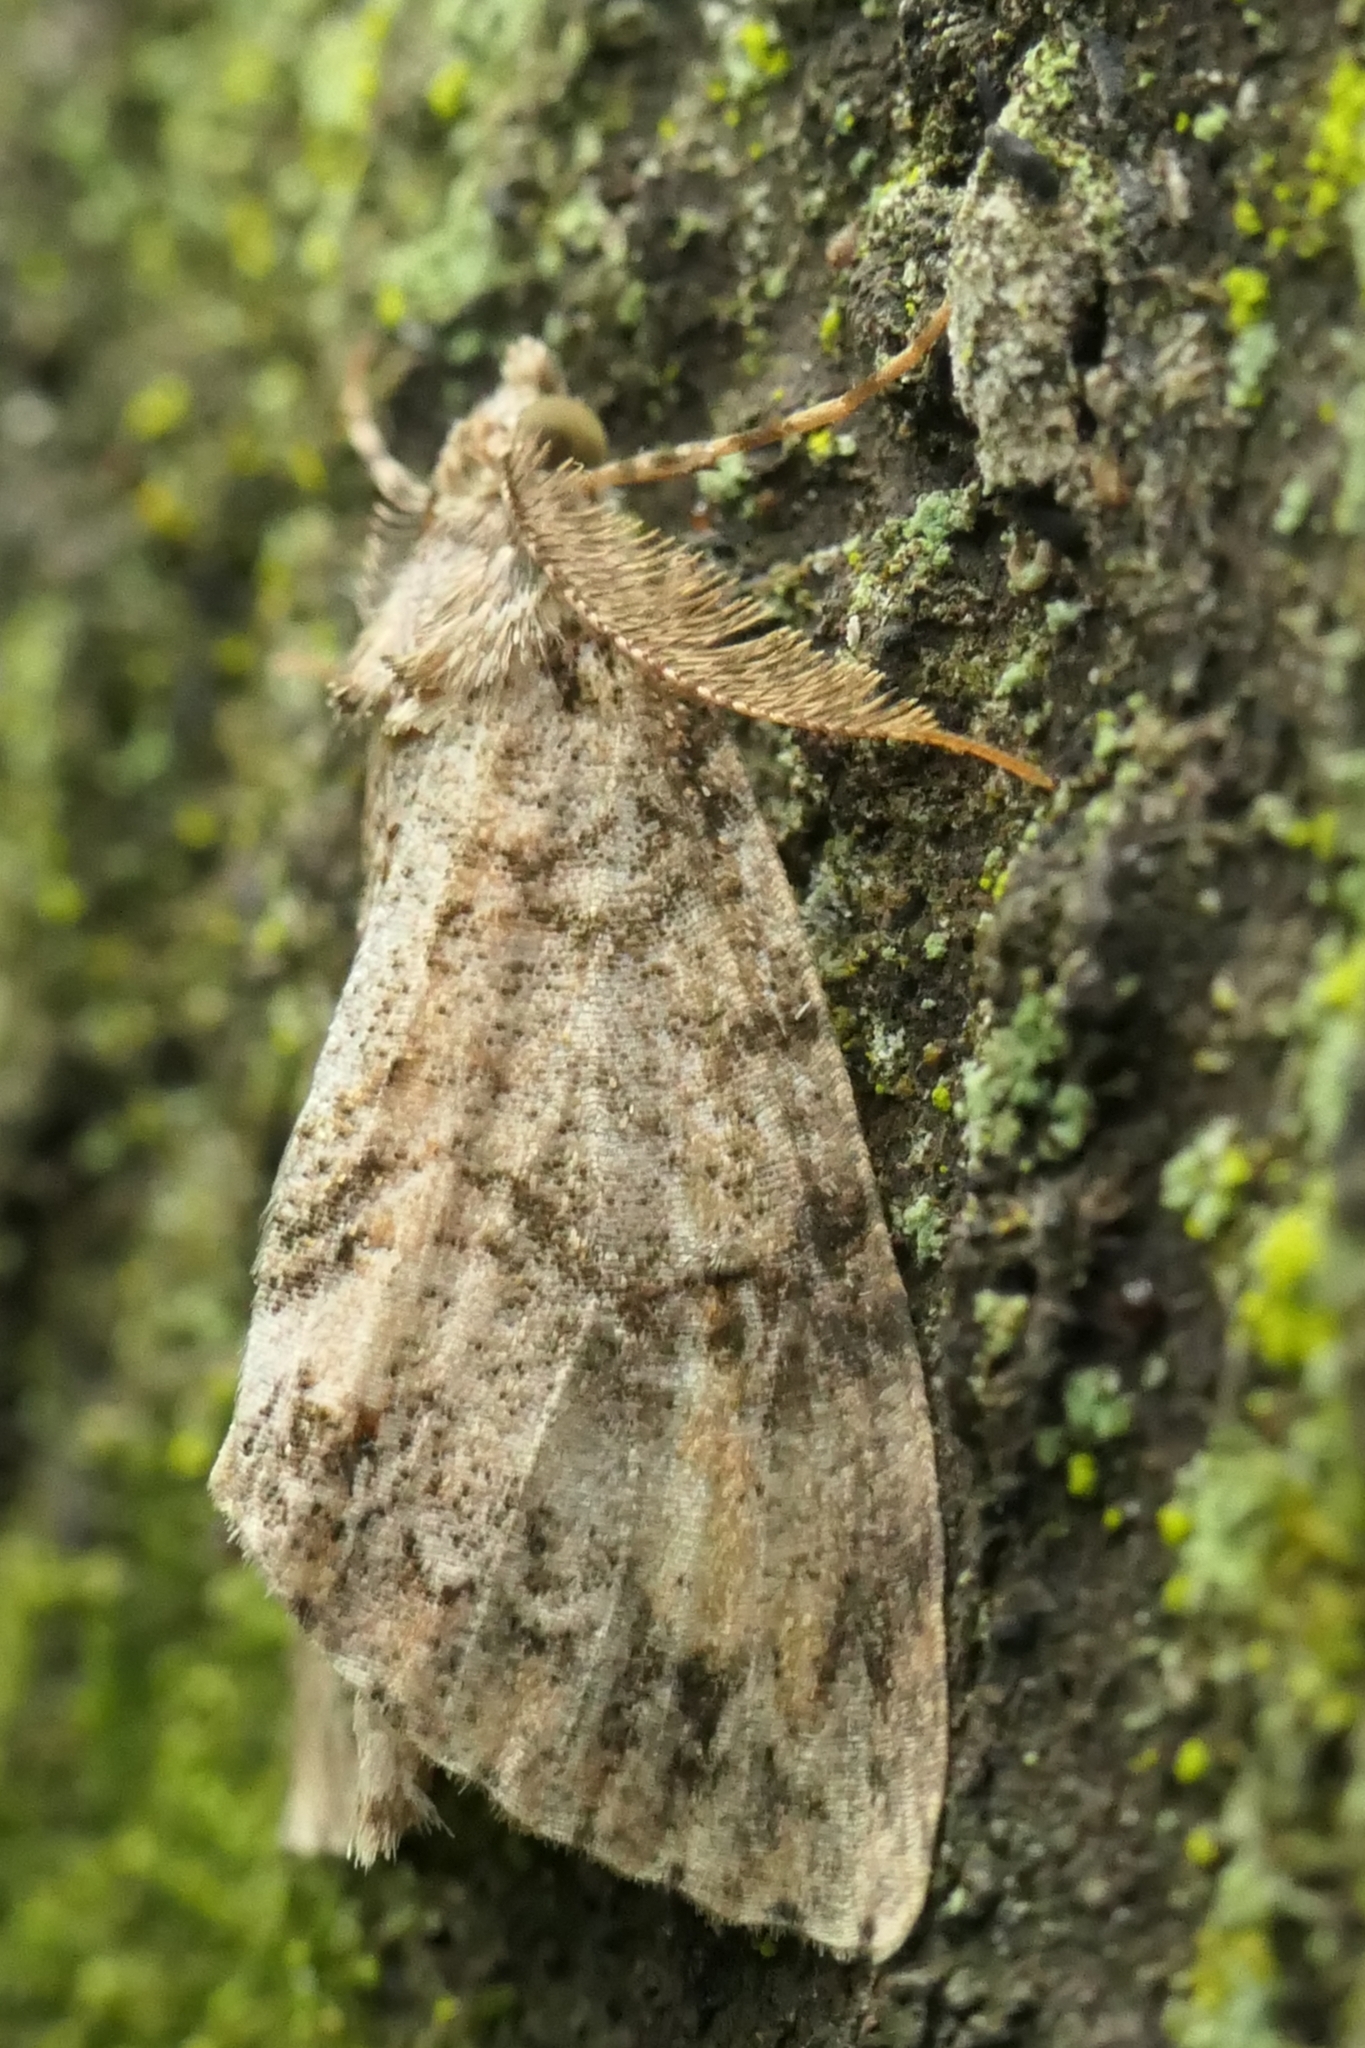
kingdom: Animalia
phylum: Arthropoda
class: Insecta
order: Lepidoptera
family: Geometridae
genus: Pseudocoremia
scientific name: Pseudocoremia suavis
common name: Common forest looper
